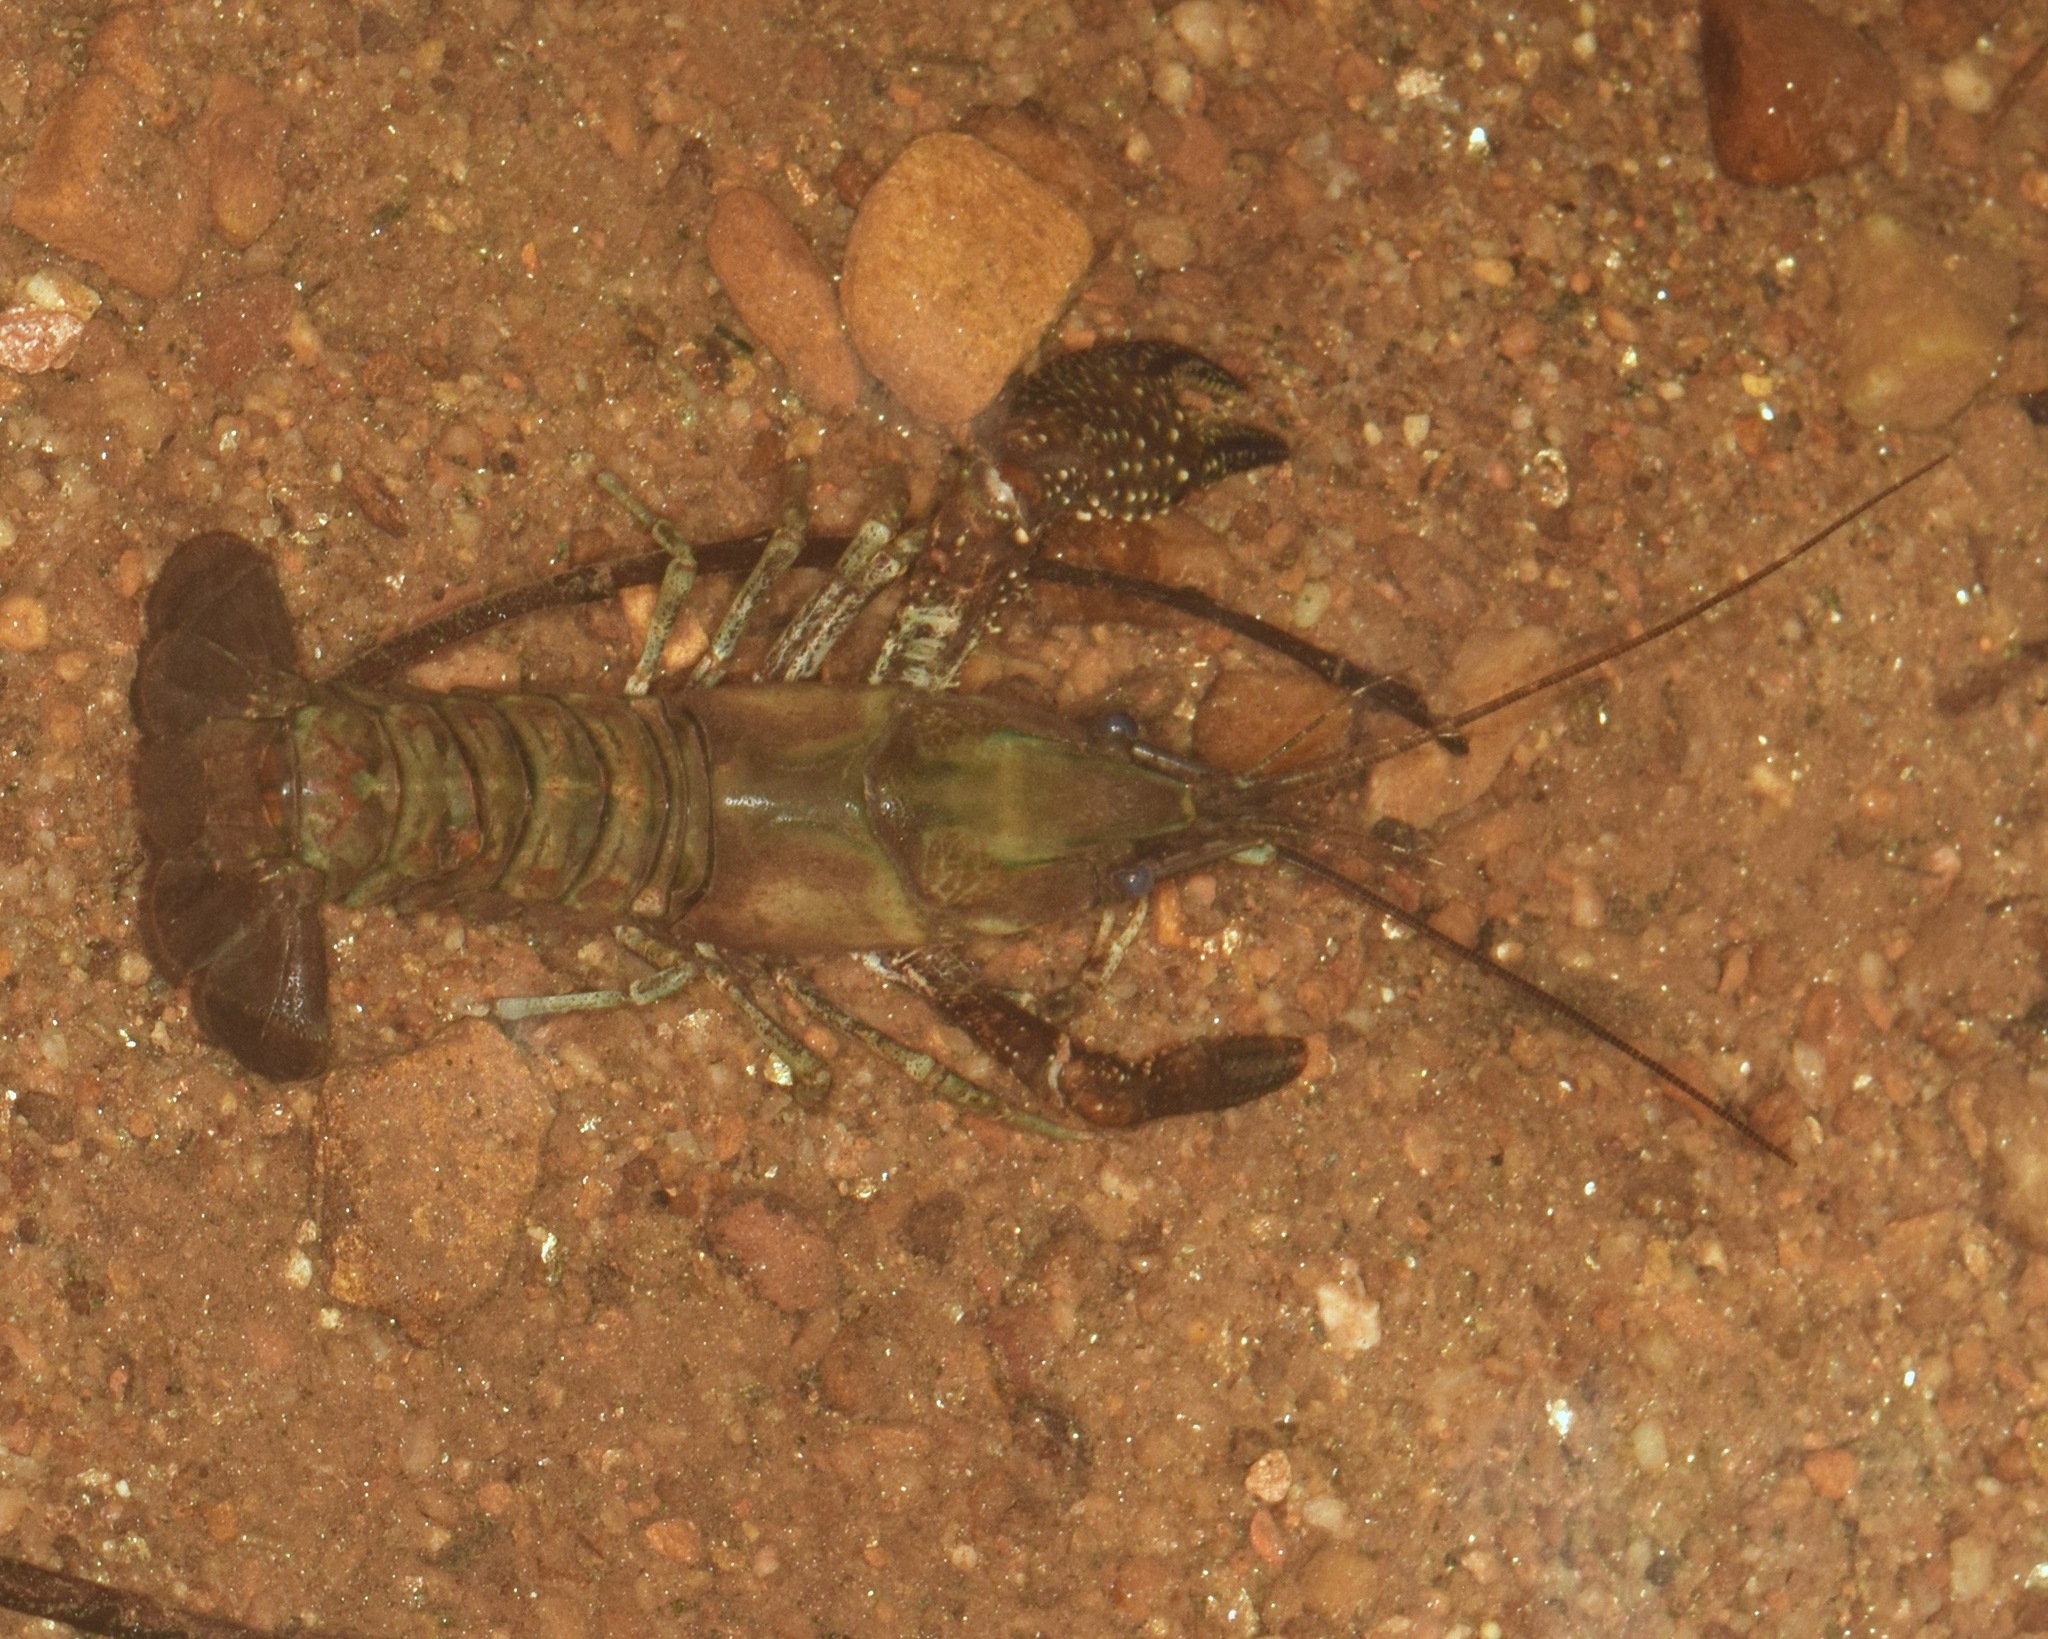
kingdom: Animalia
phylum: Arthropoda
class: Malacostraca
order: Decapoda
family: Cambaridae
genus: Procambarus
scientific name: Procambarus spiculifer
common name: White tubercled crayfish
